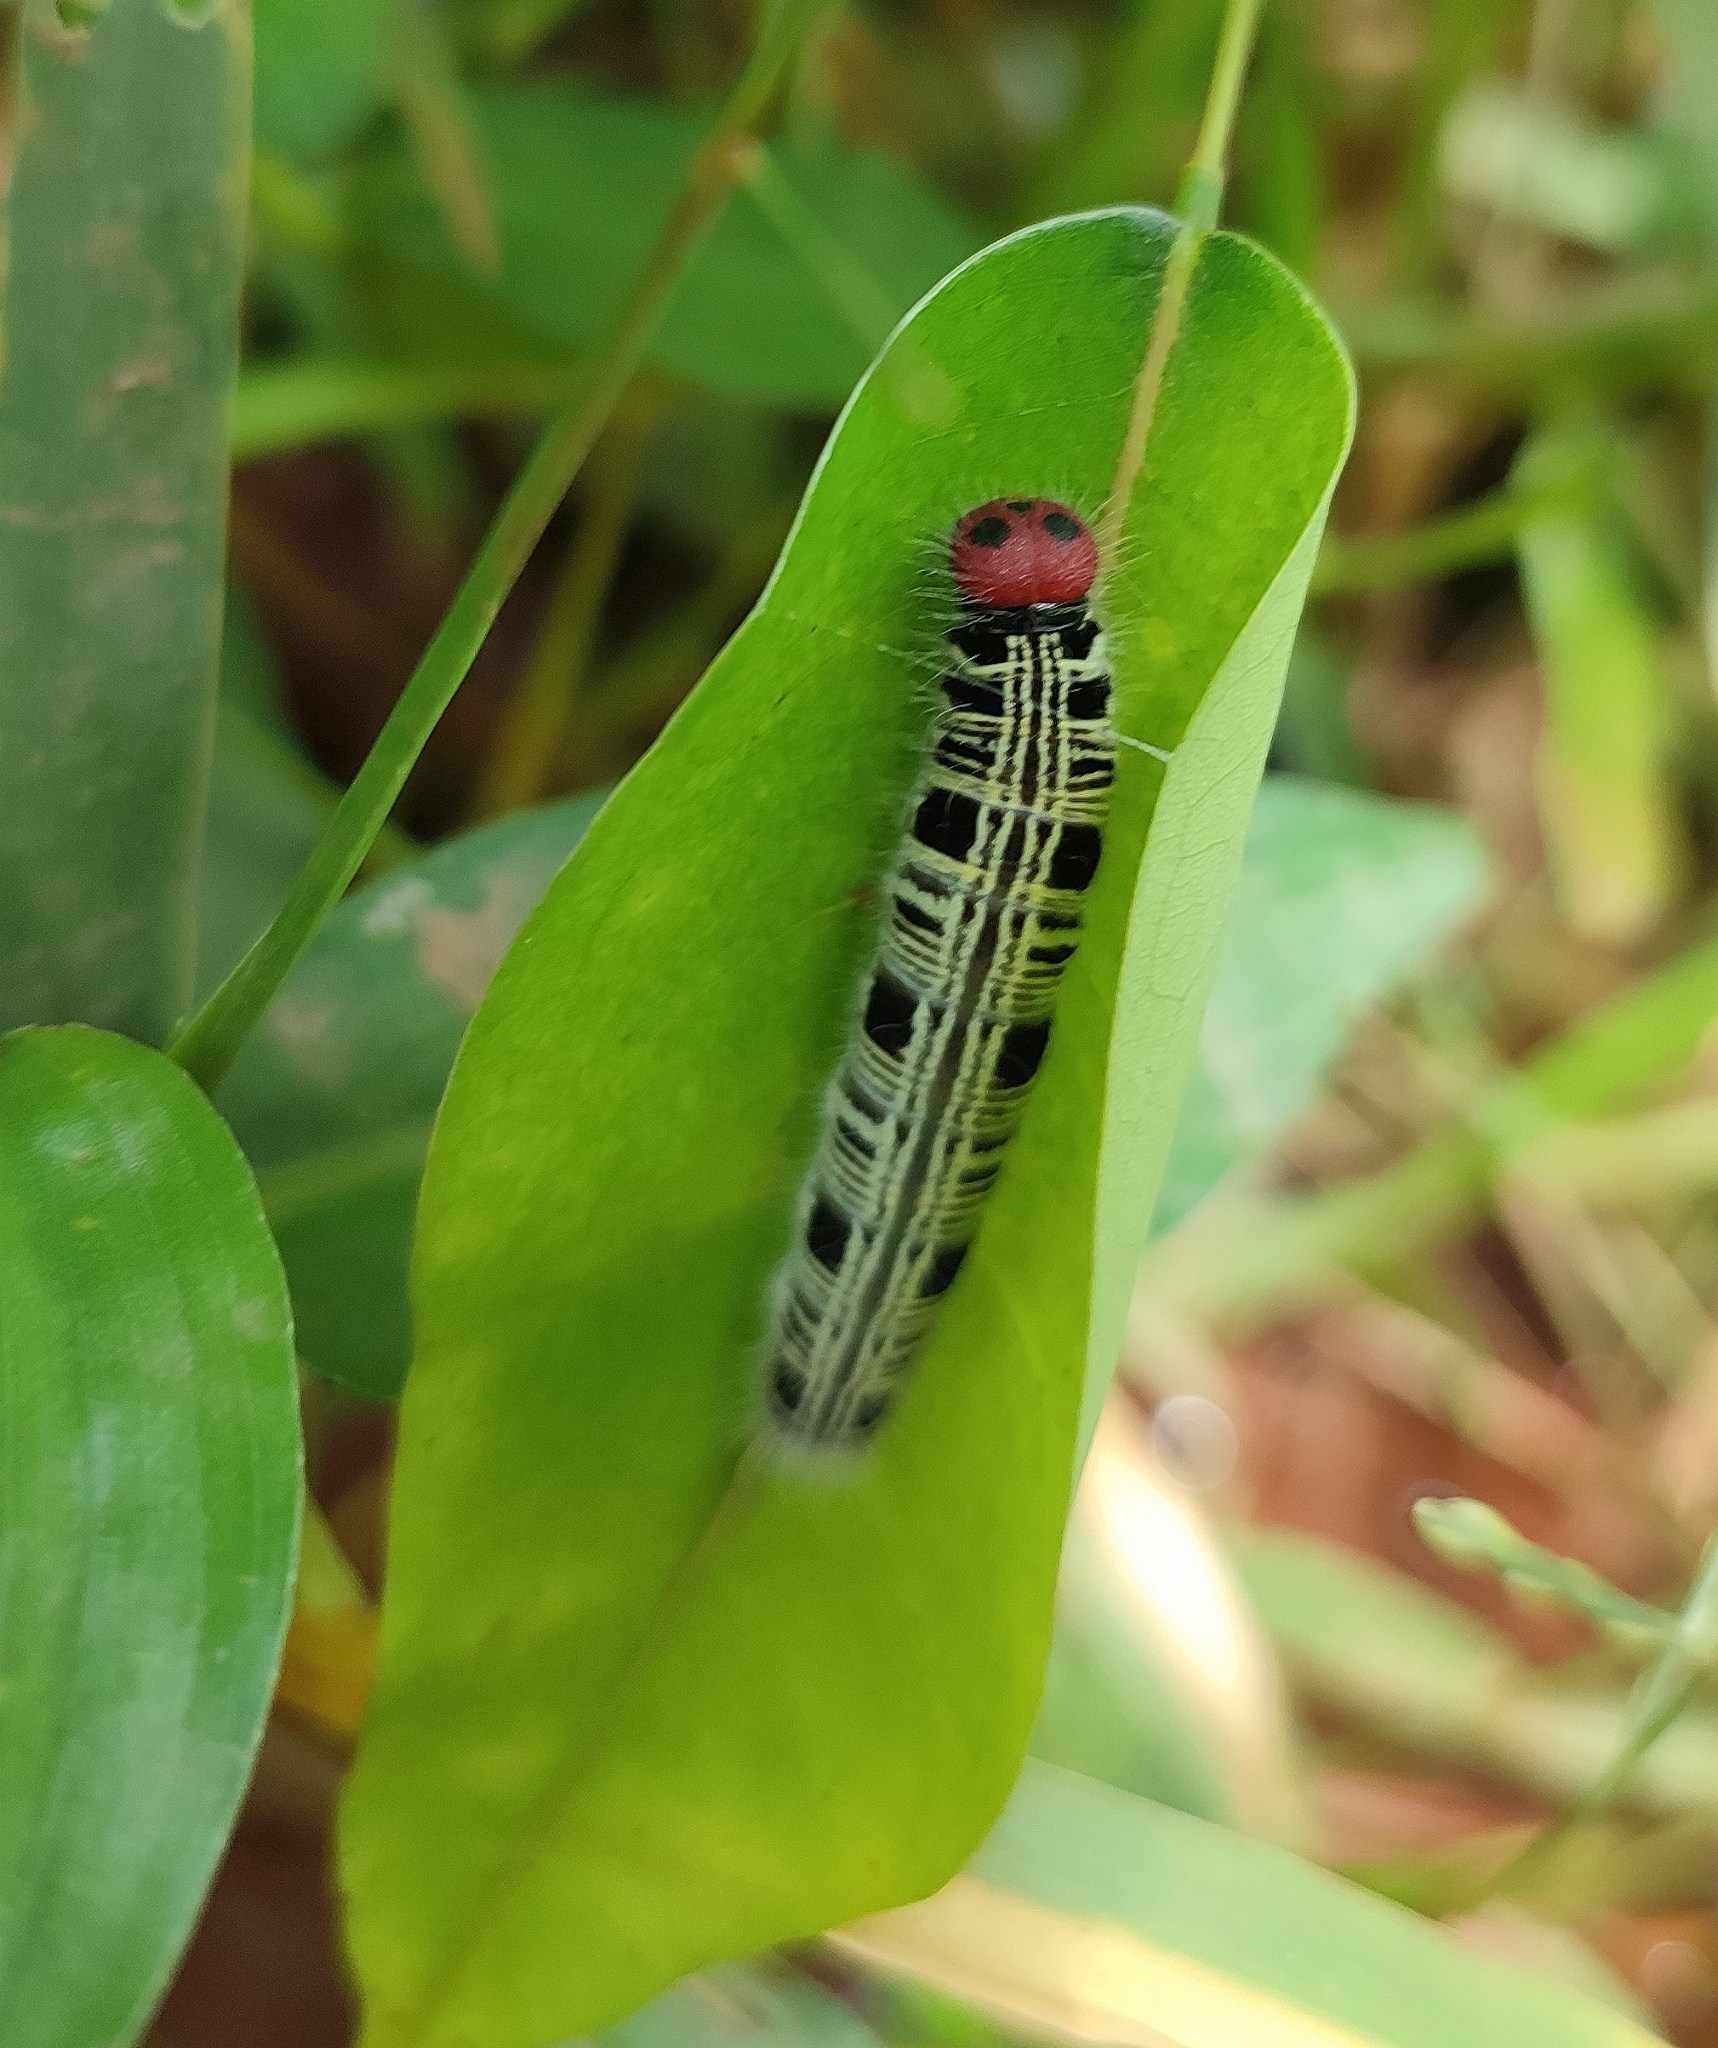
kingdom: Animalia
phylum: Arthropoda
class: Insecta
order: Lepidoptera
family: Hesperiidae
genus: Hasora
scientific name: Hasora badra
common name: Common awl
